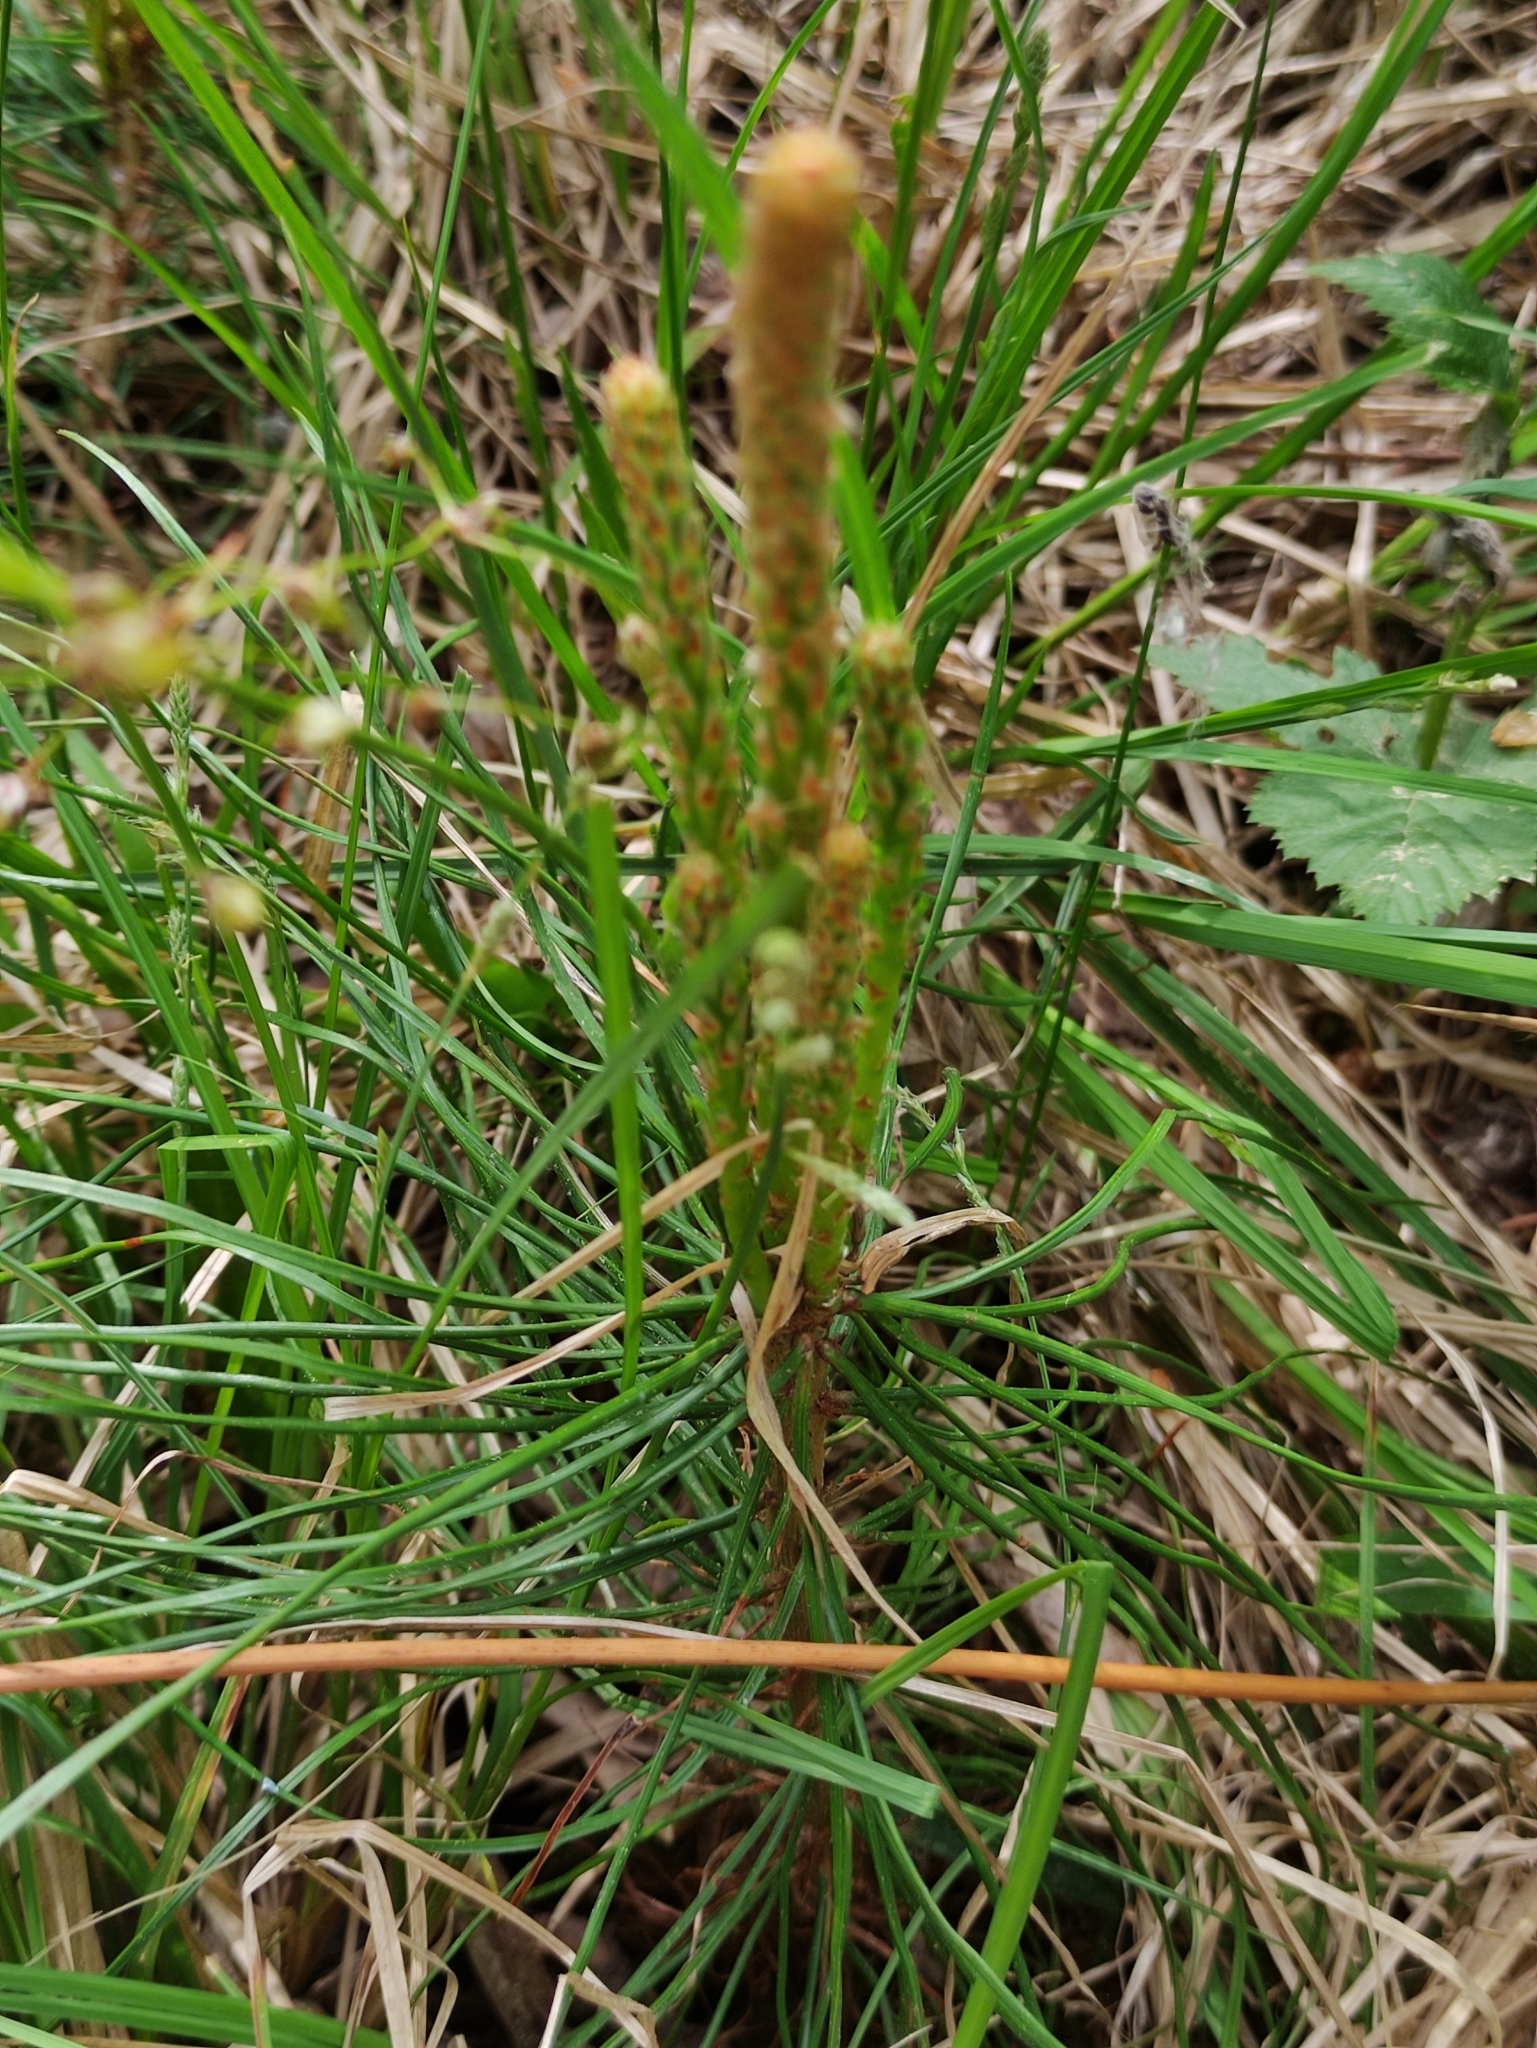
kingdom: Plantae
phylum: Tracheophyta
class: Pinopsida
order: Pinales
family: Pinaceae
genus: Pinus
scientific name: Pinus sylvestris
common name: Scots pine
